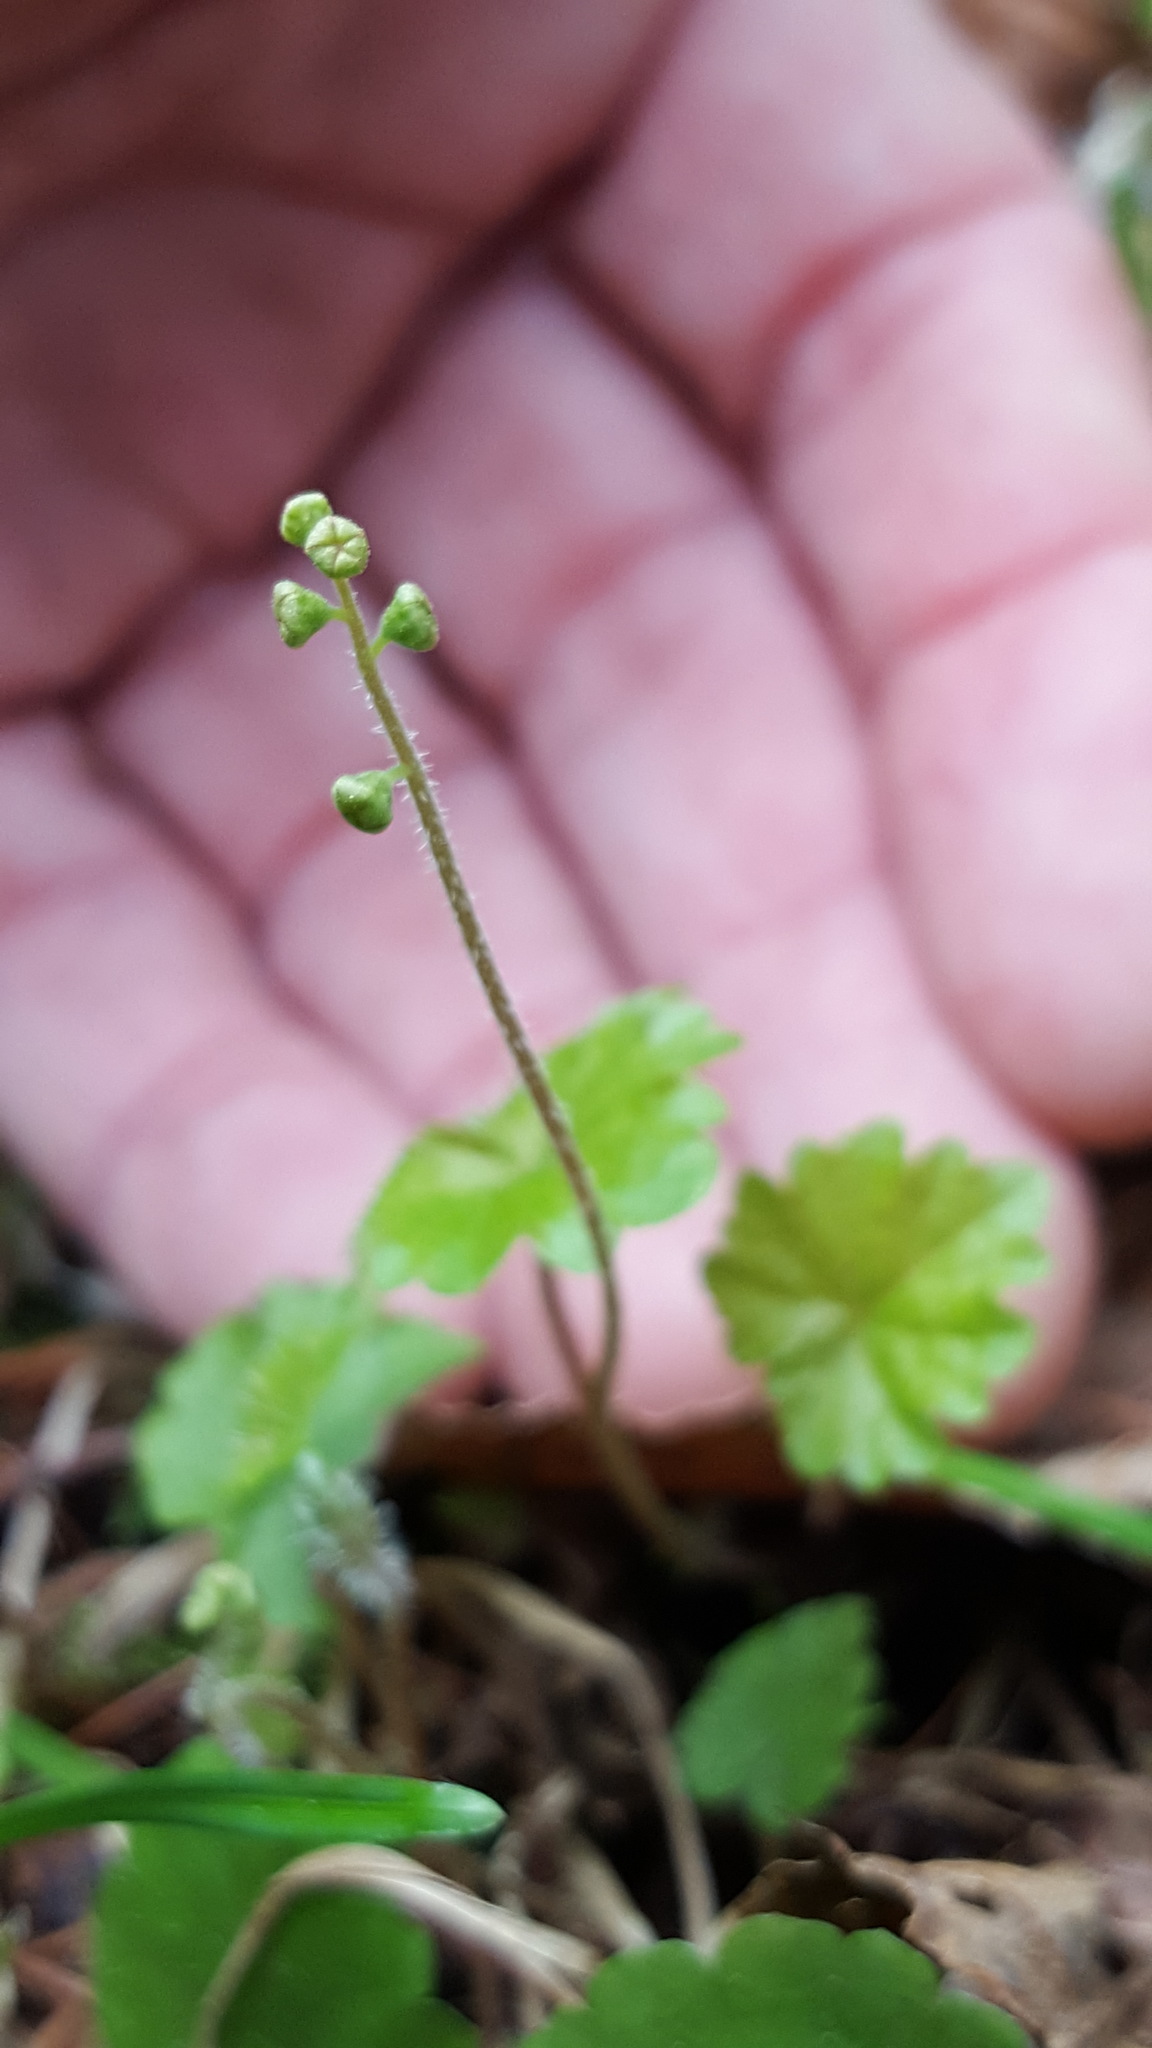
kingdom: Plantae
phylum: Tracheophyta
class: Magnoliopsida
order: Saxifragales
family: Saxifragaceae
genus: Mitella
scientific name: Mitella nuda
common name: Bare-stemmed bishop's-cap
